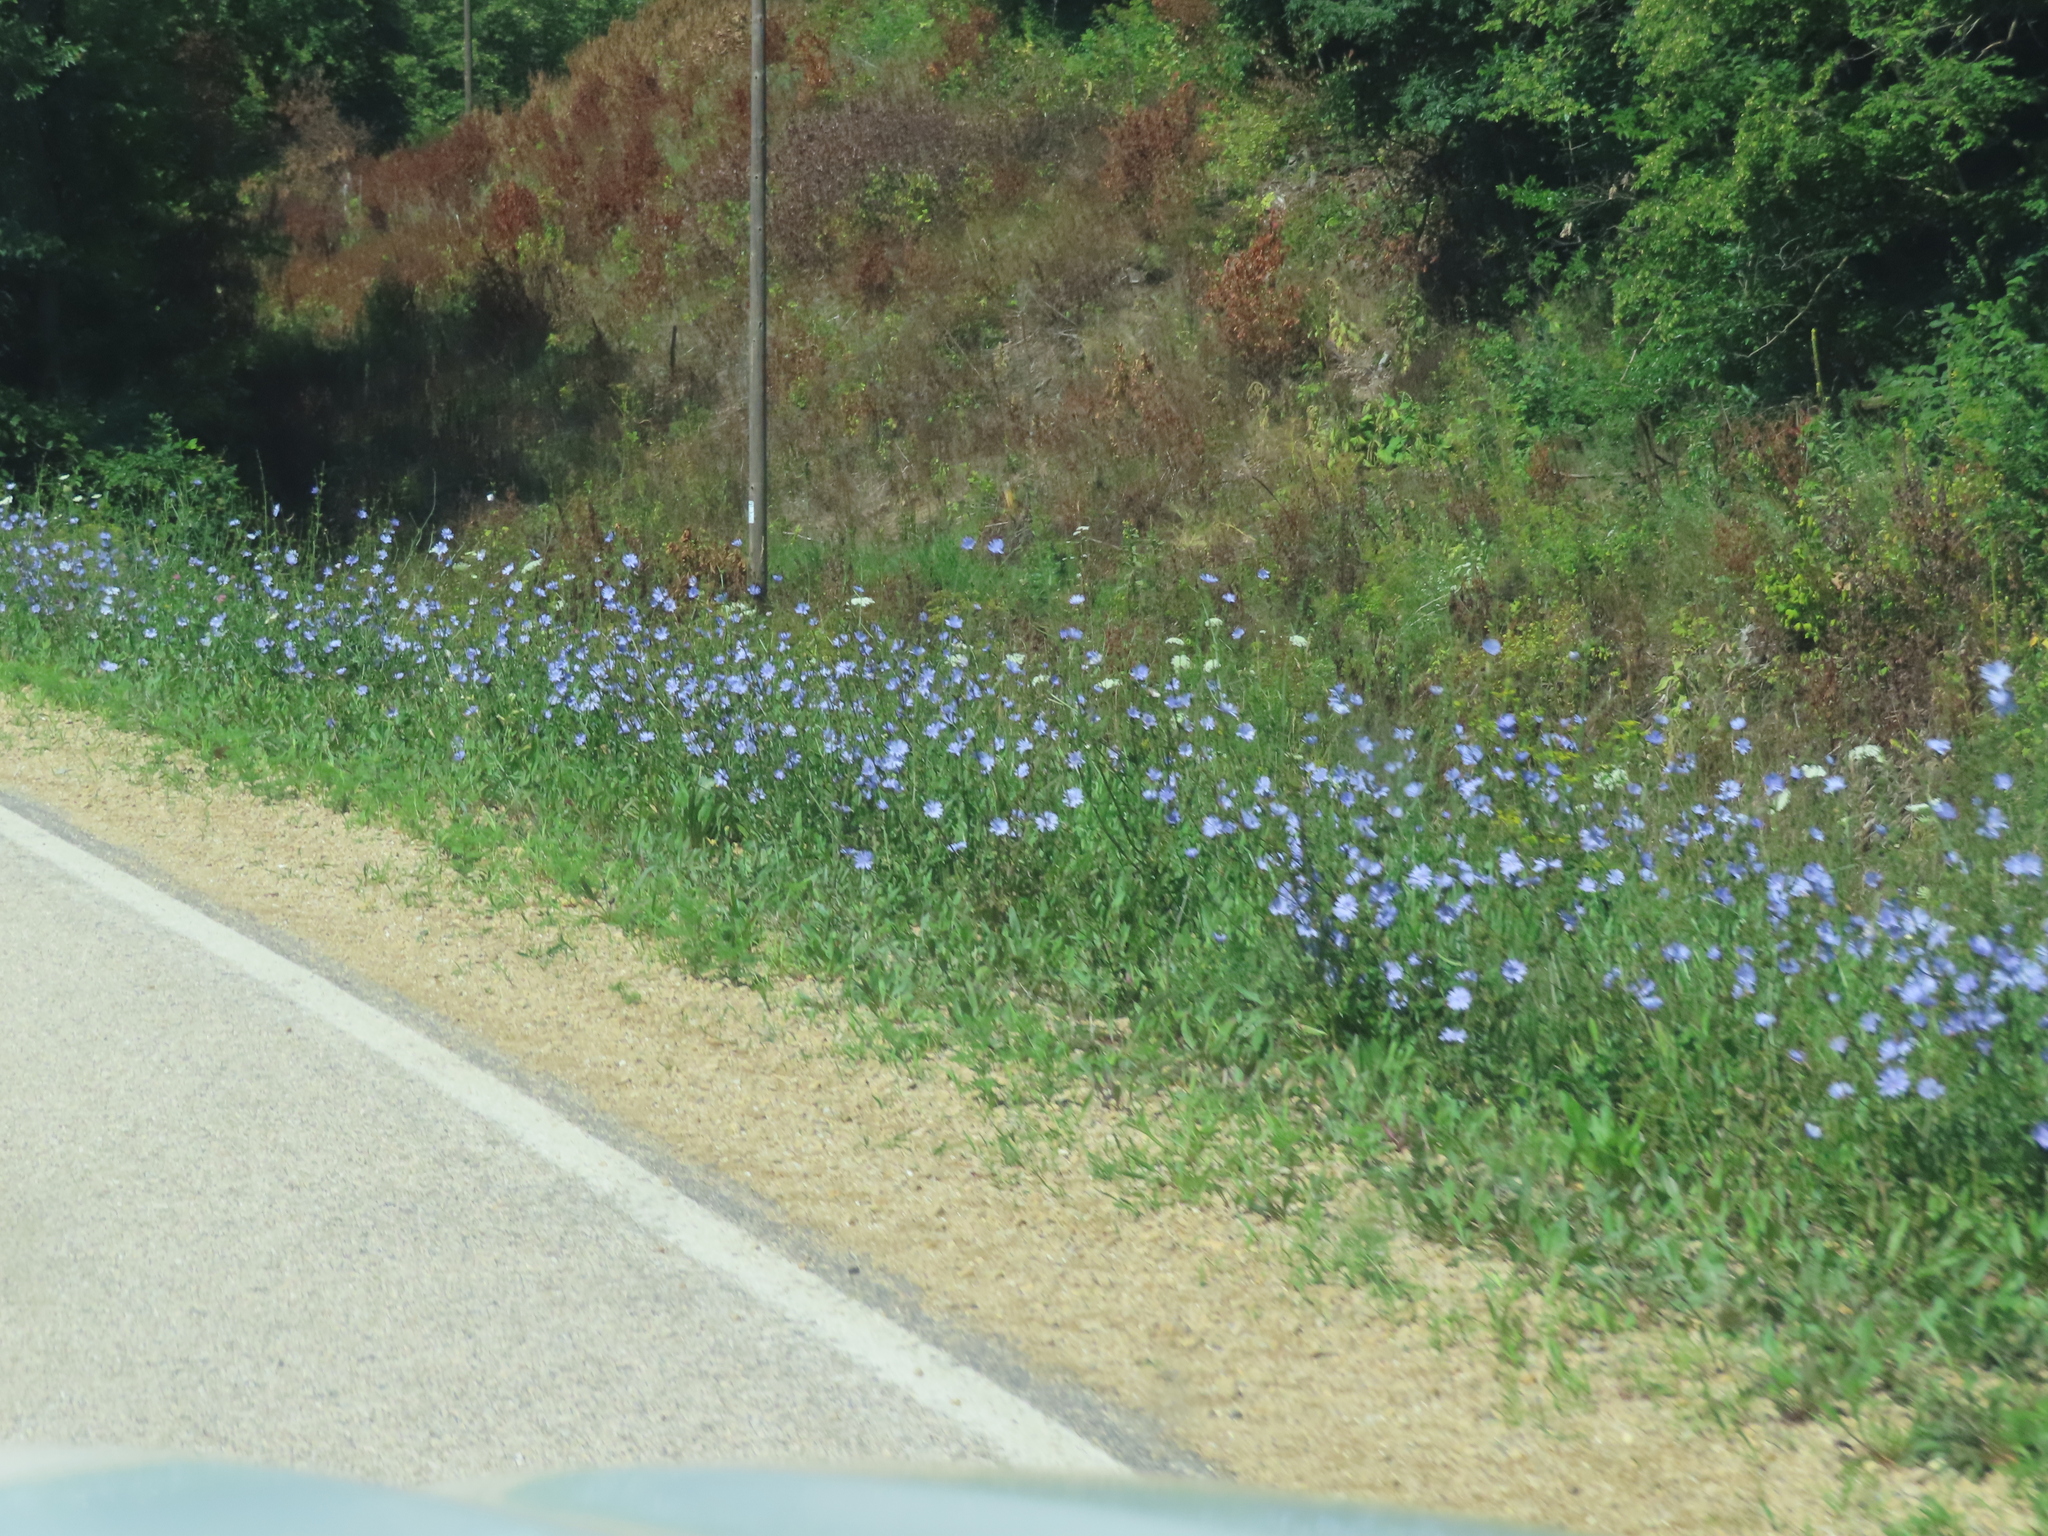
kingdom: Plantae
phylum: Tracheophyta
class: Magnoliopsida
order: Asterales
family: Asteraceae
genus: Cichorium
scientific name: Cichorium intybus
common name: Chicory
